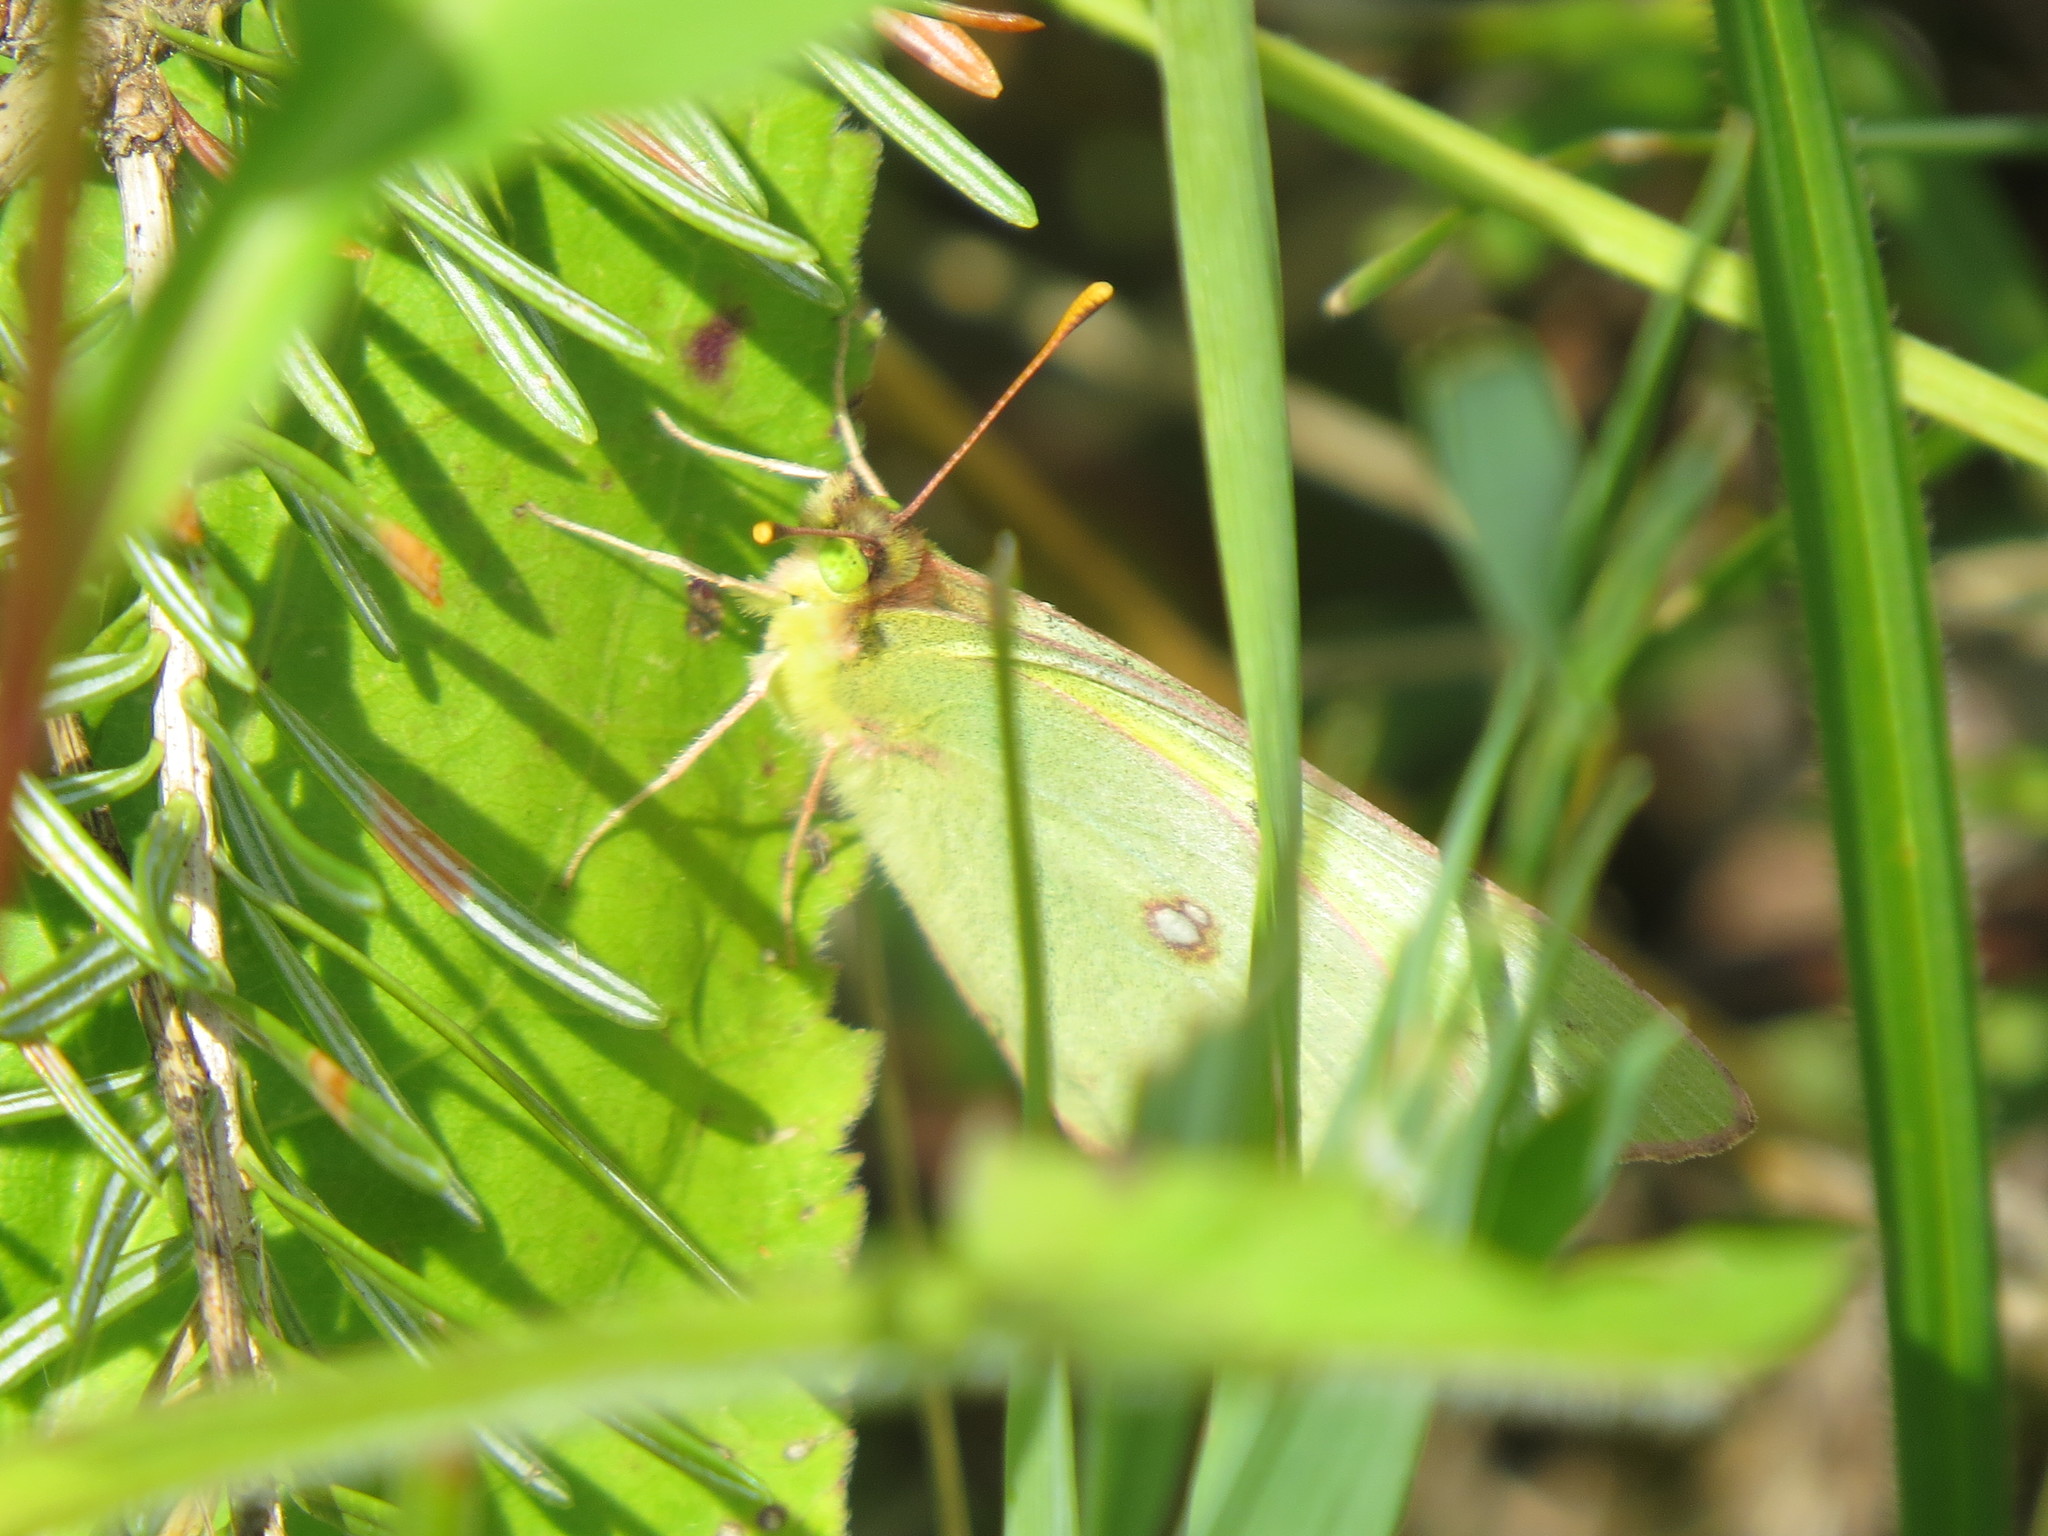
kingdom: Animalia
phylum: Arthropoda
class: Insecta
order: Lepidoptera
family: Pieridae
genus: Colias
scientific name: Colias philodice
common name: Clouded sulphur
